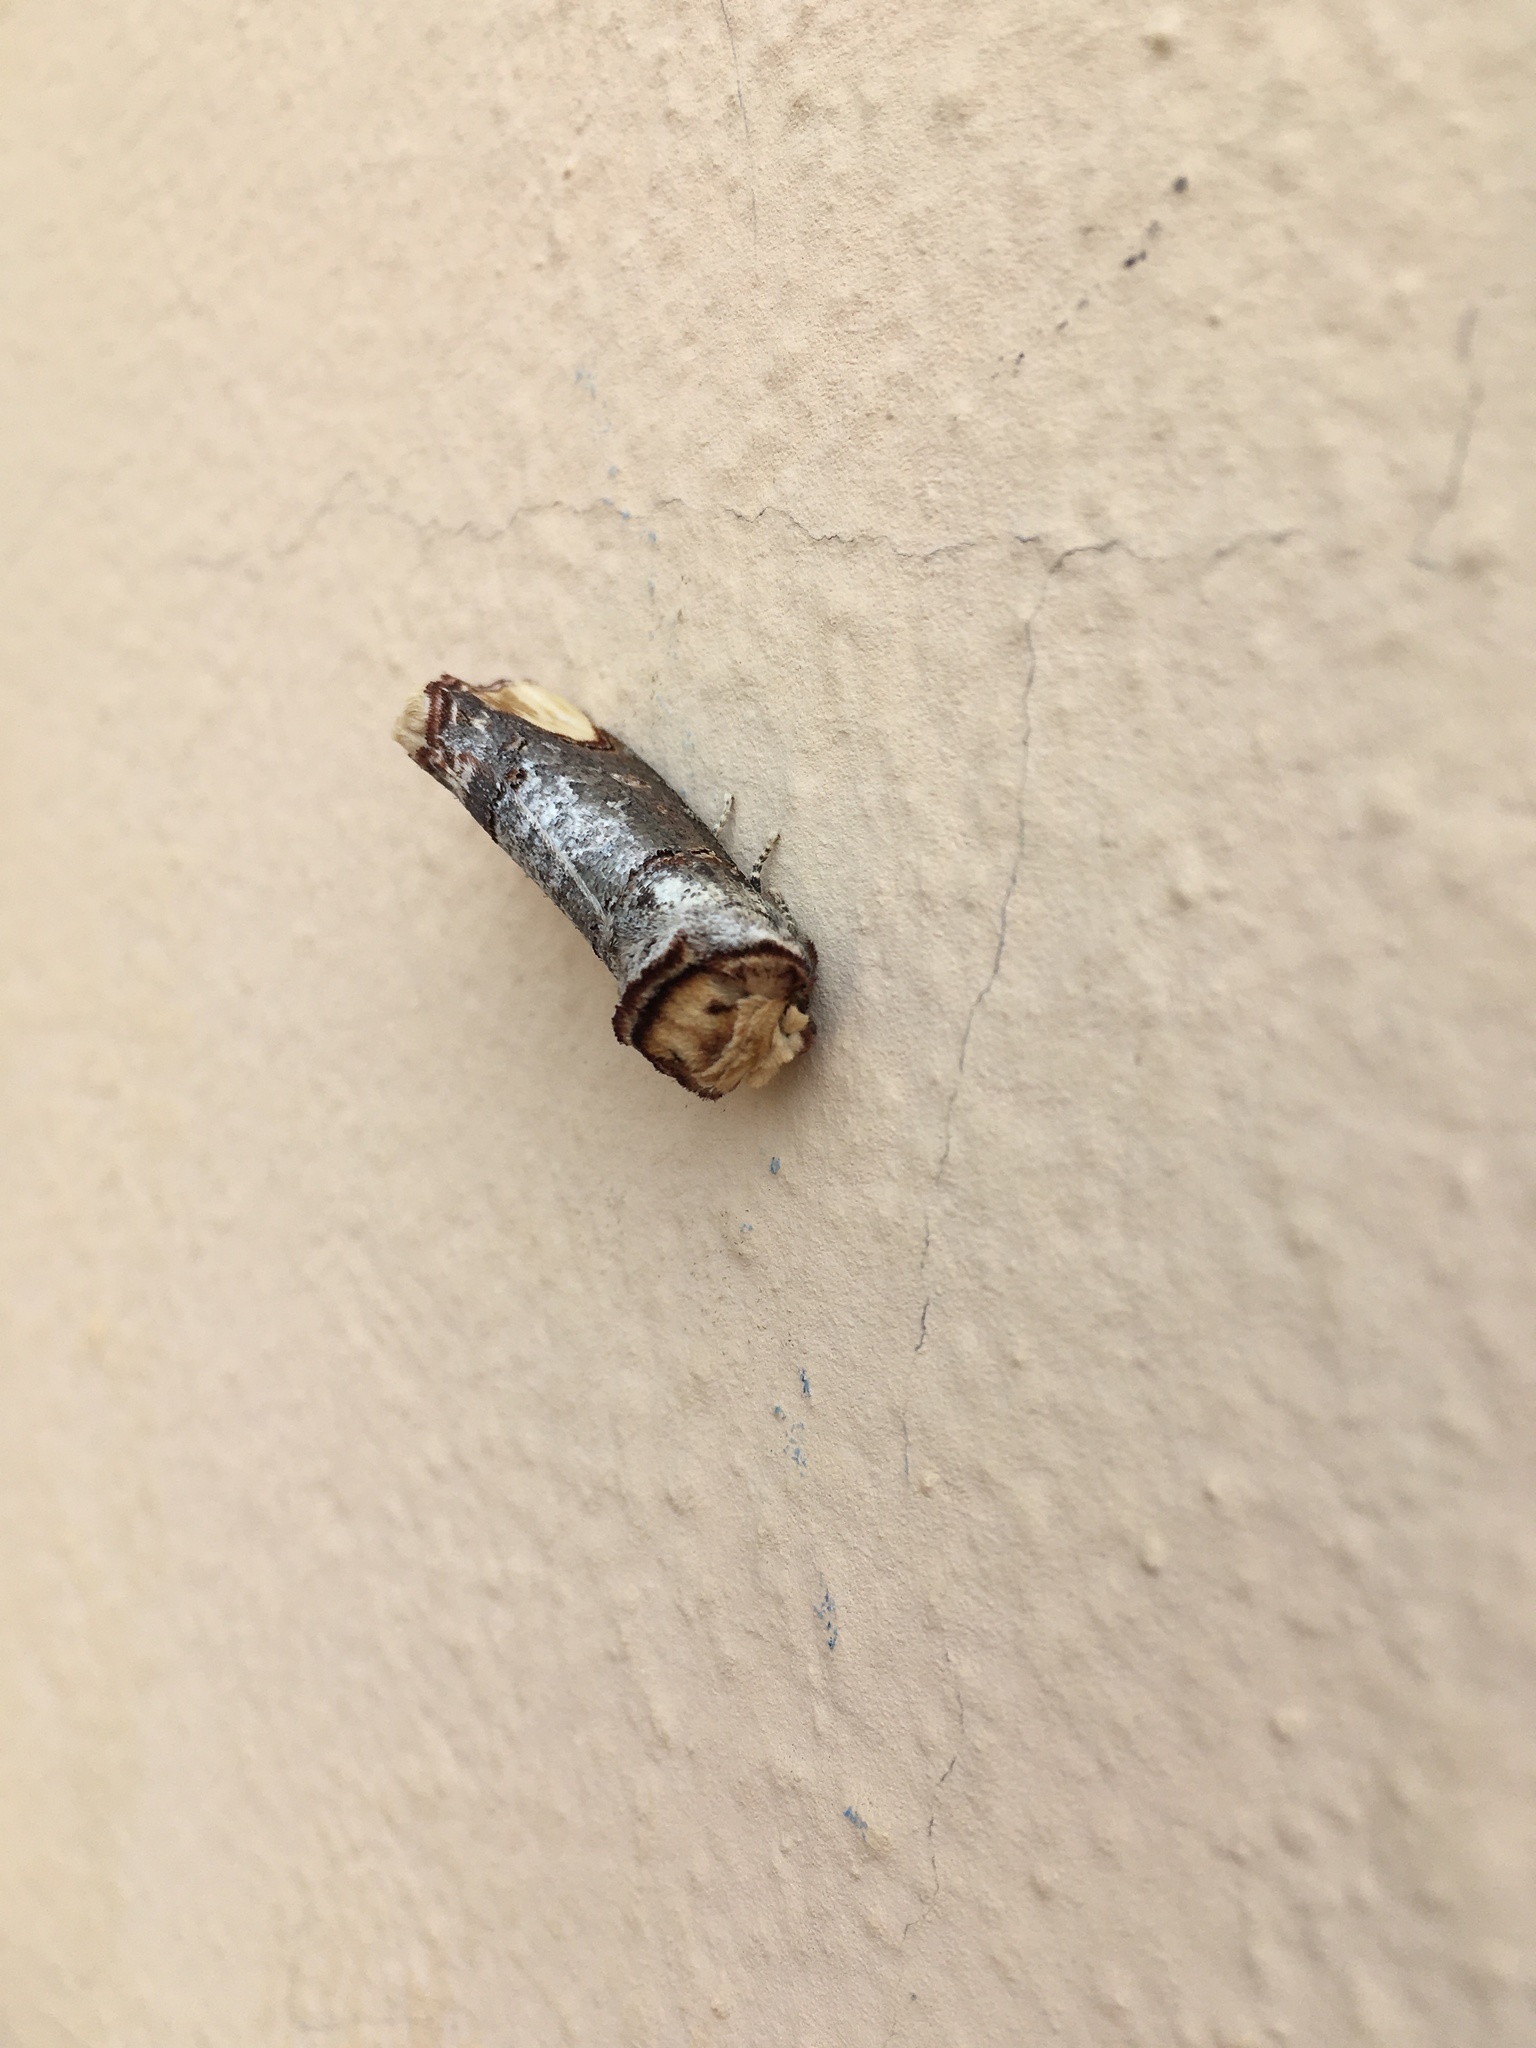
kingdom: Animalia
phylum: Arthropoda
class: Insecta
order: Lepidoptera
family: Notodontidae
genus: Phalera
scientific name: Phalera bucephala
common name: Buff-tip
